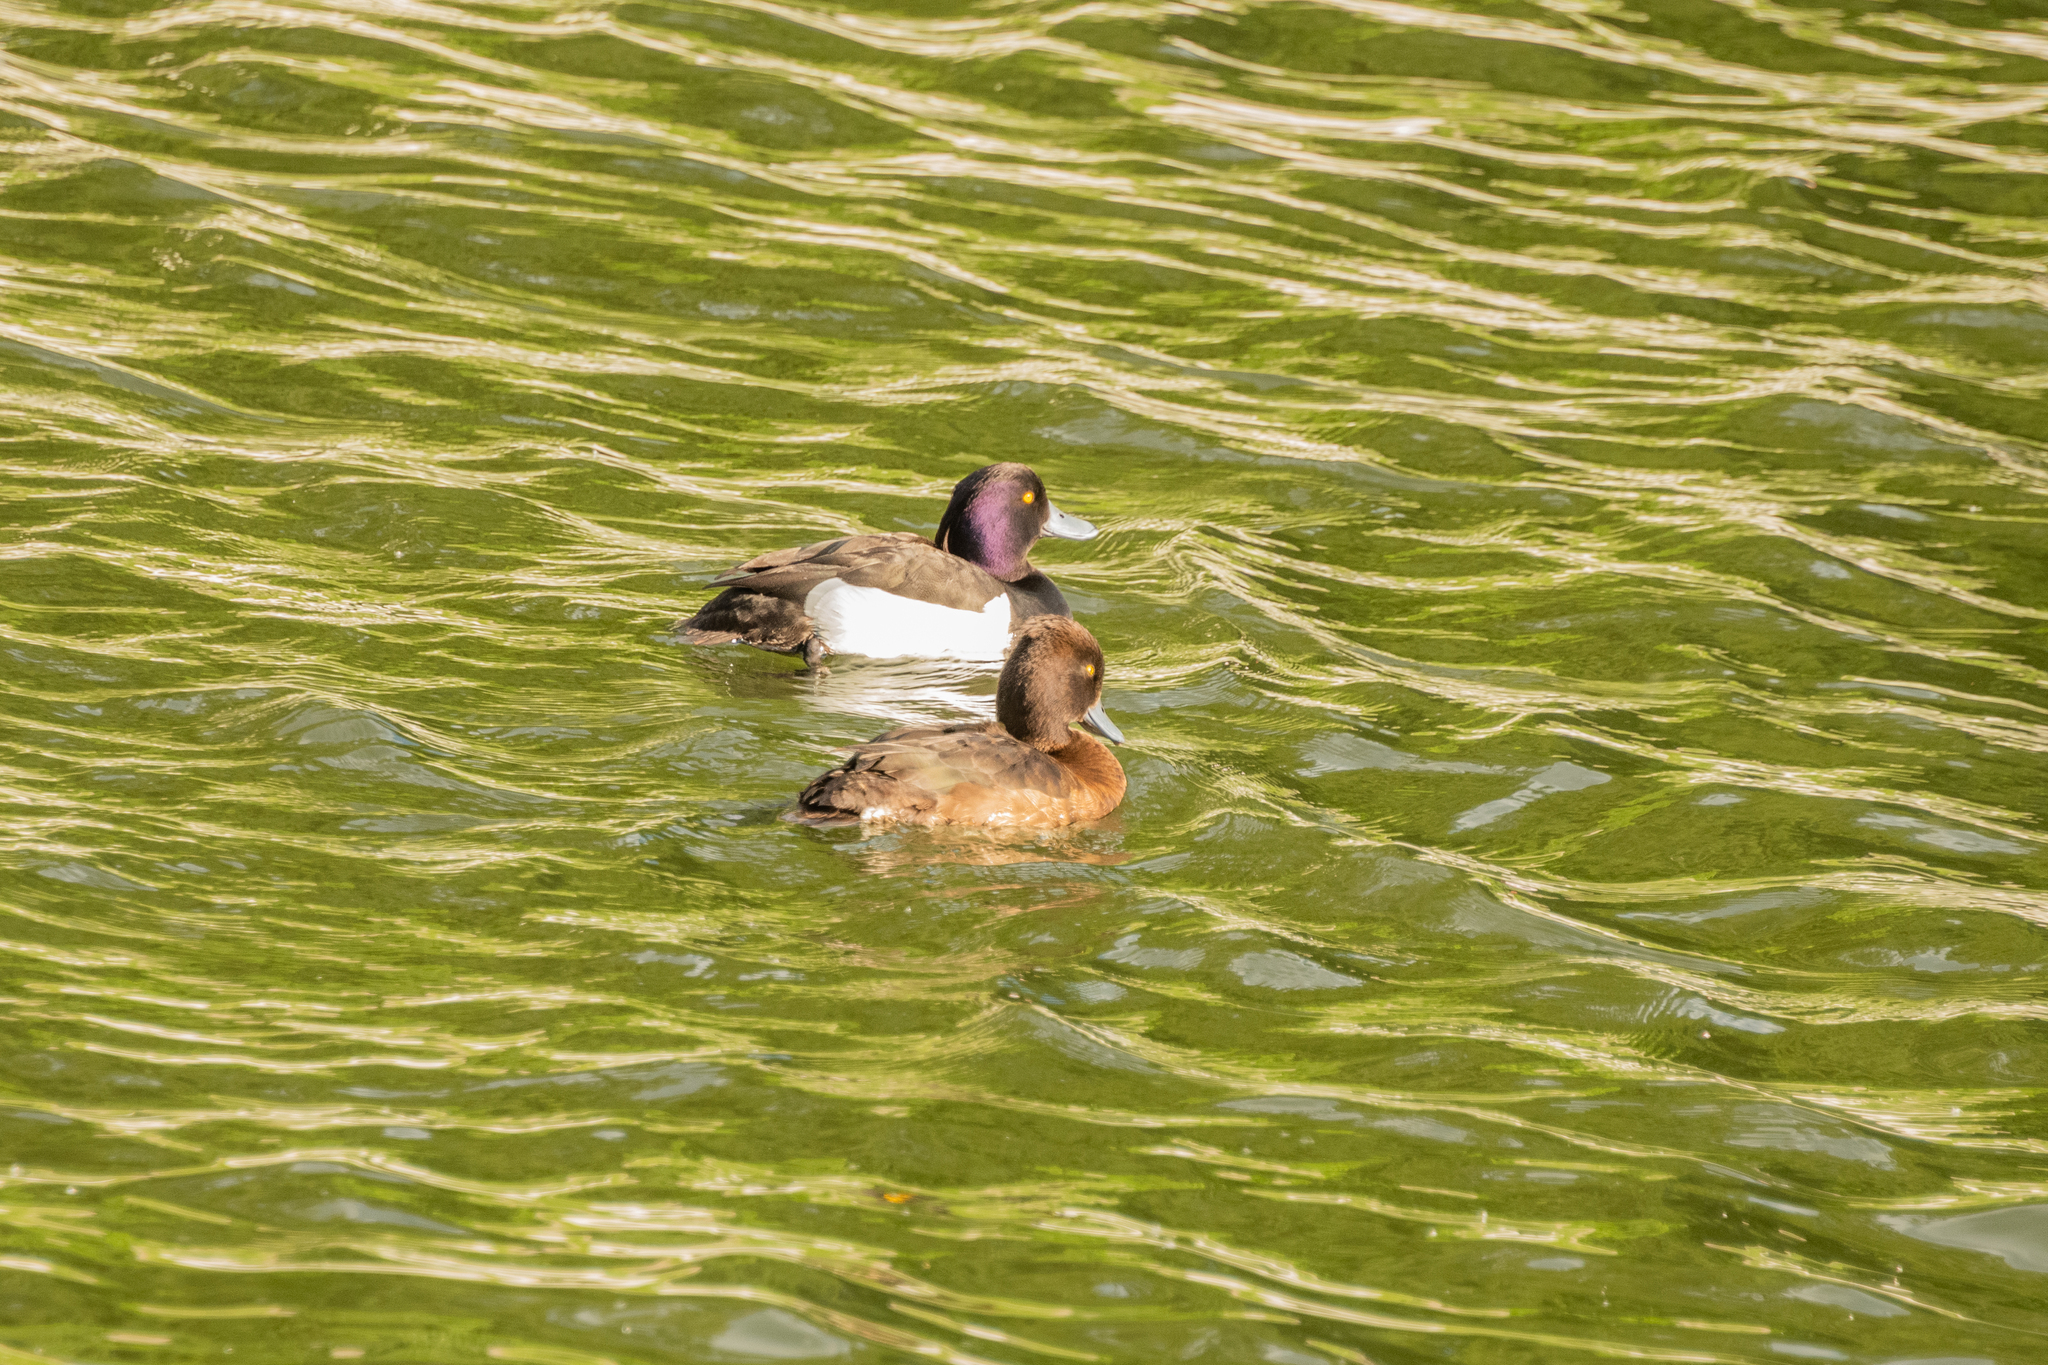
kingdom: Animalia
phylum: Chordata
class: Aves
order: Anseriformes
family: Anatidae
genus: Aythya
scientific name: Aythya fuligula
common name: Tufted duck
